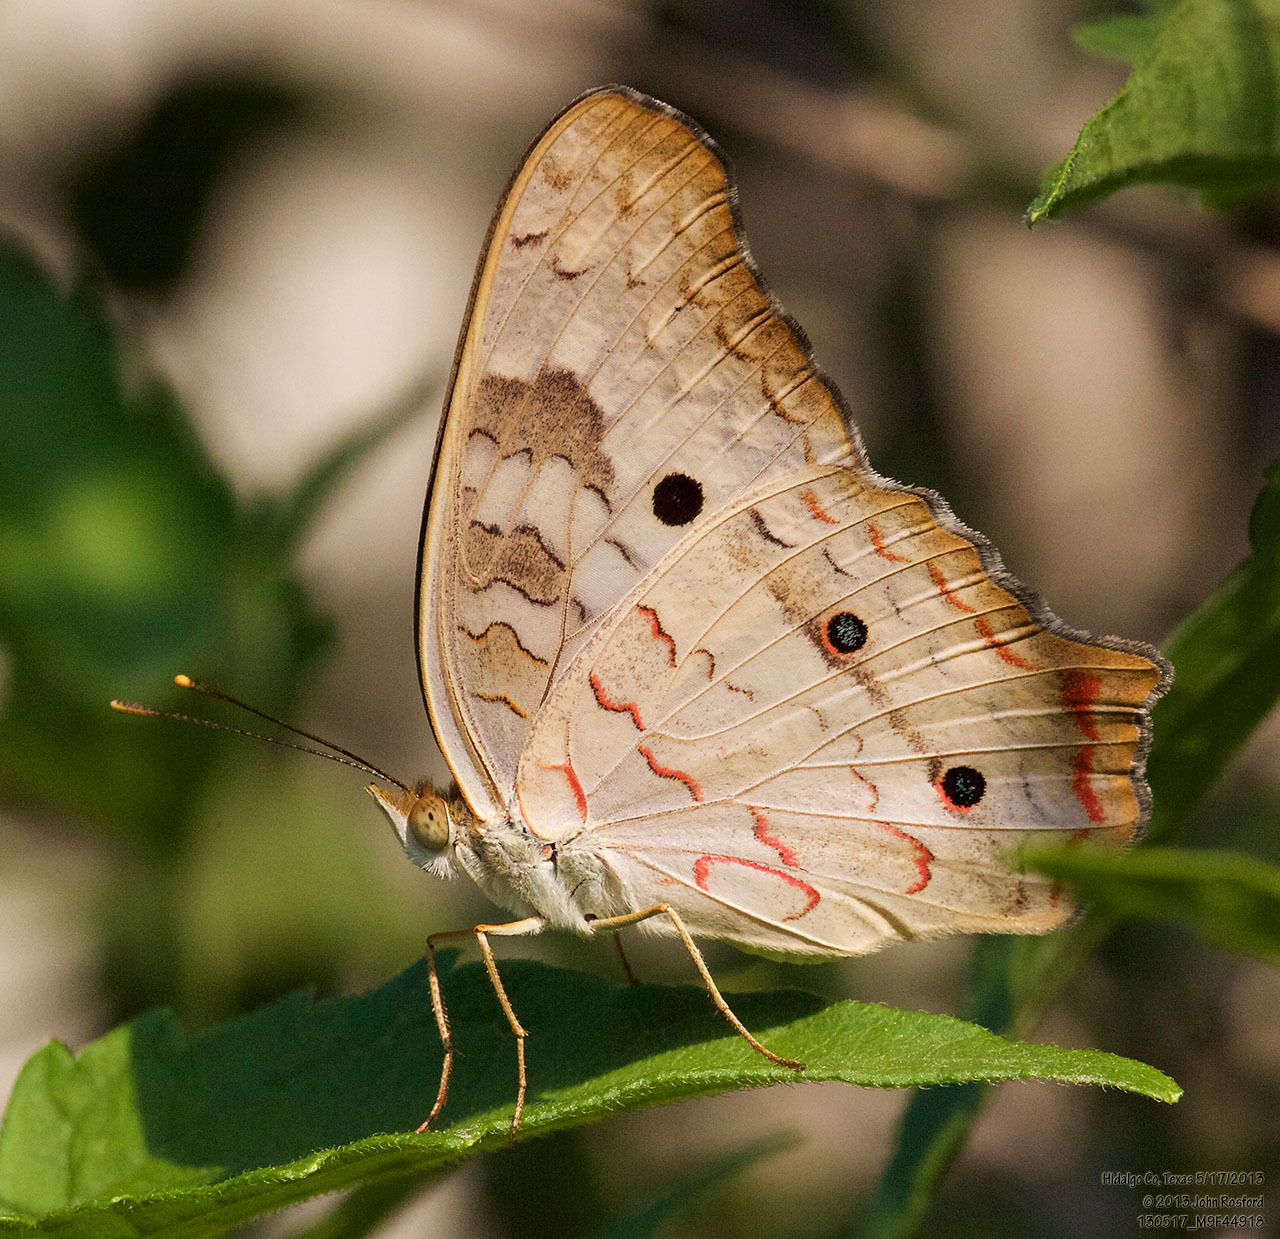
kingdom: Animalia
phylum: Arthropoda
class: Insecta
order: Lepidoptera
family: Nymphalidae
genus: Anartia
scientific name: Anartia jatrophae
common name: White peacock
